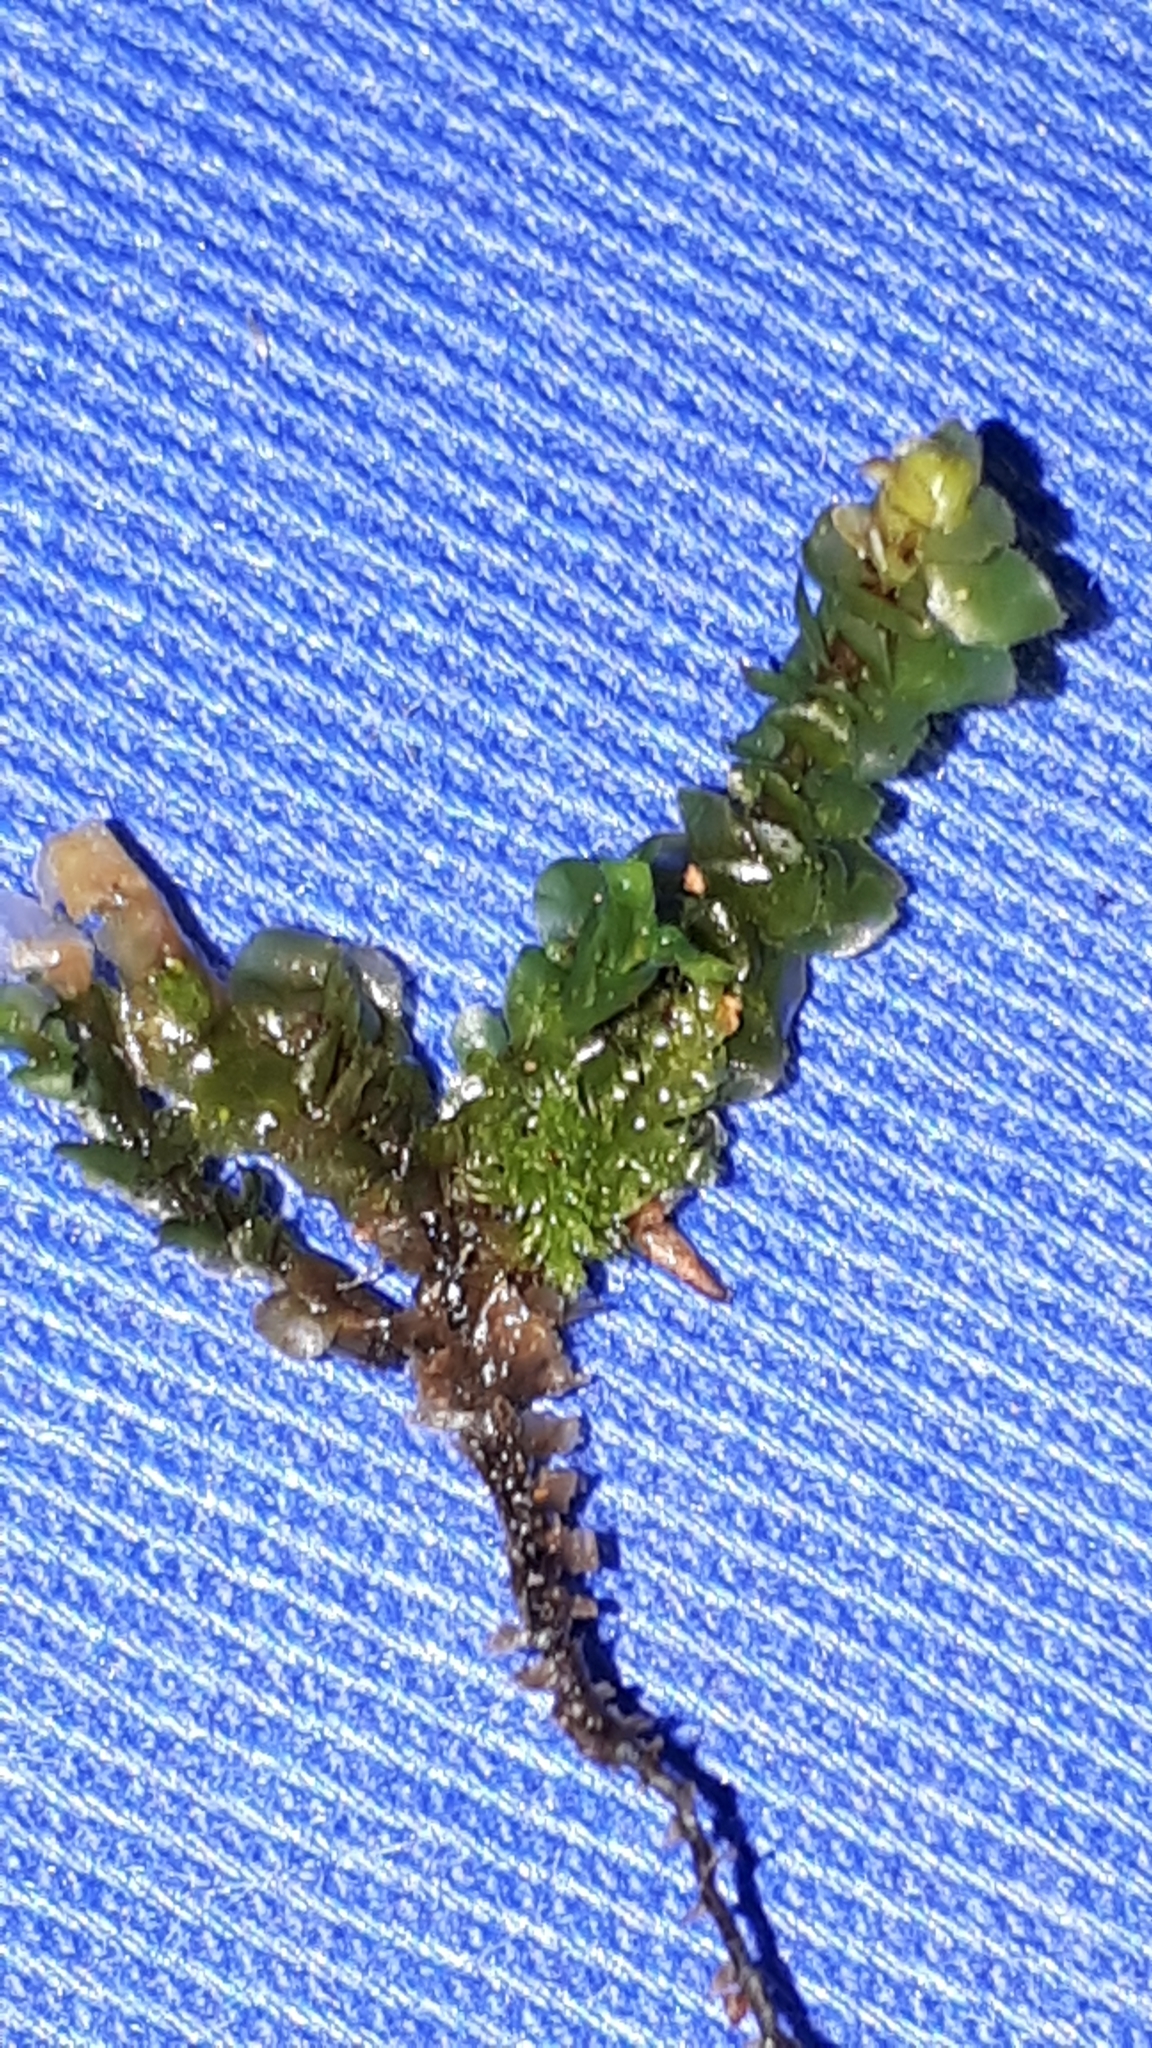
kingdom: Plantae
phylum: Marchantiophyta
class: Jungermanniopsida
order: Jungermanniales
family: Scapaniaceae
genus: Scapania
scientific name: Scapania nemorea
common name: Grove earwort
